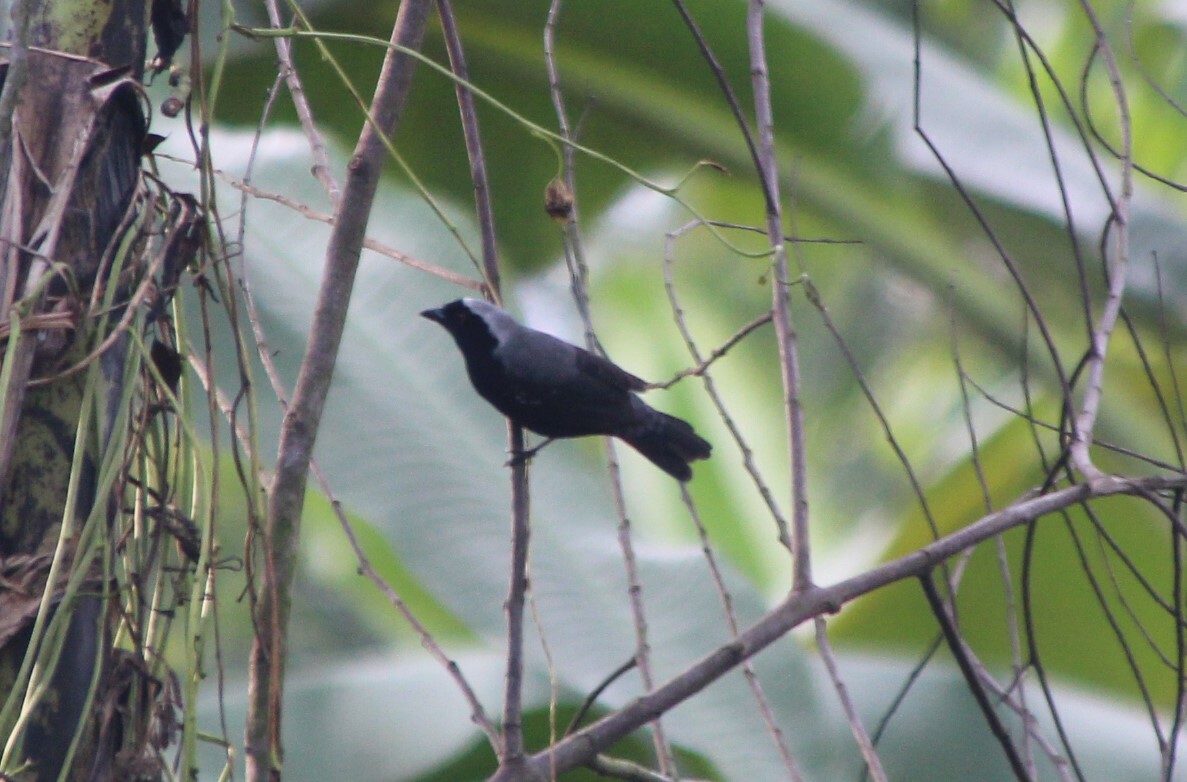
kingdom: Animalia
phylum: Chordata
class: Aves
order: Passeriformes
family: Estrildidae
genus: Nigrita
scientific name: Nigrita canicapillus
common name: Grey-headed nigrita
